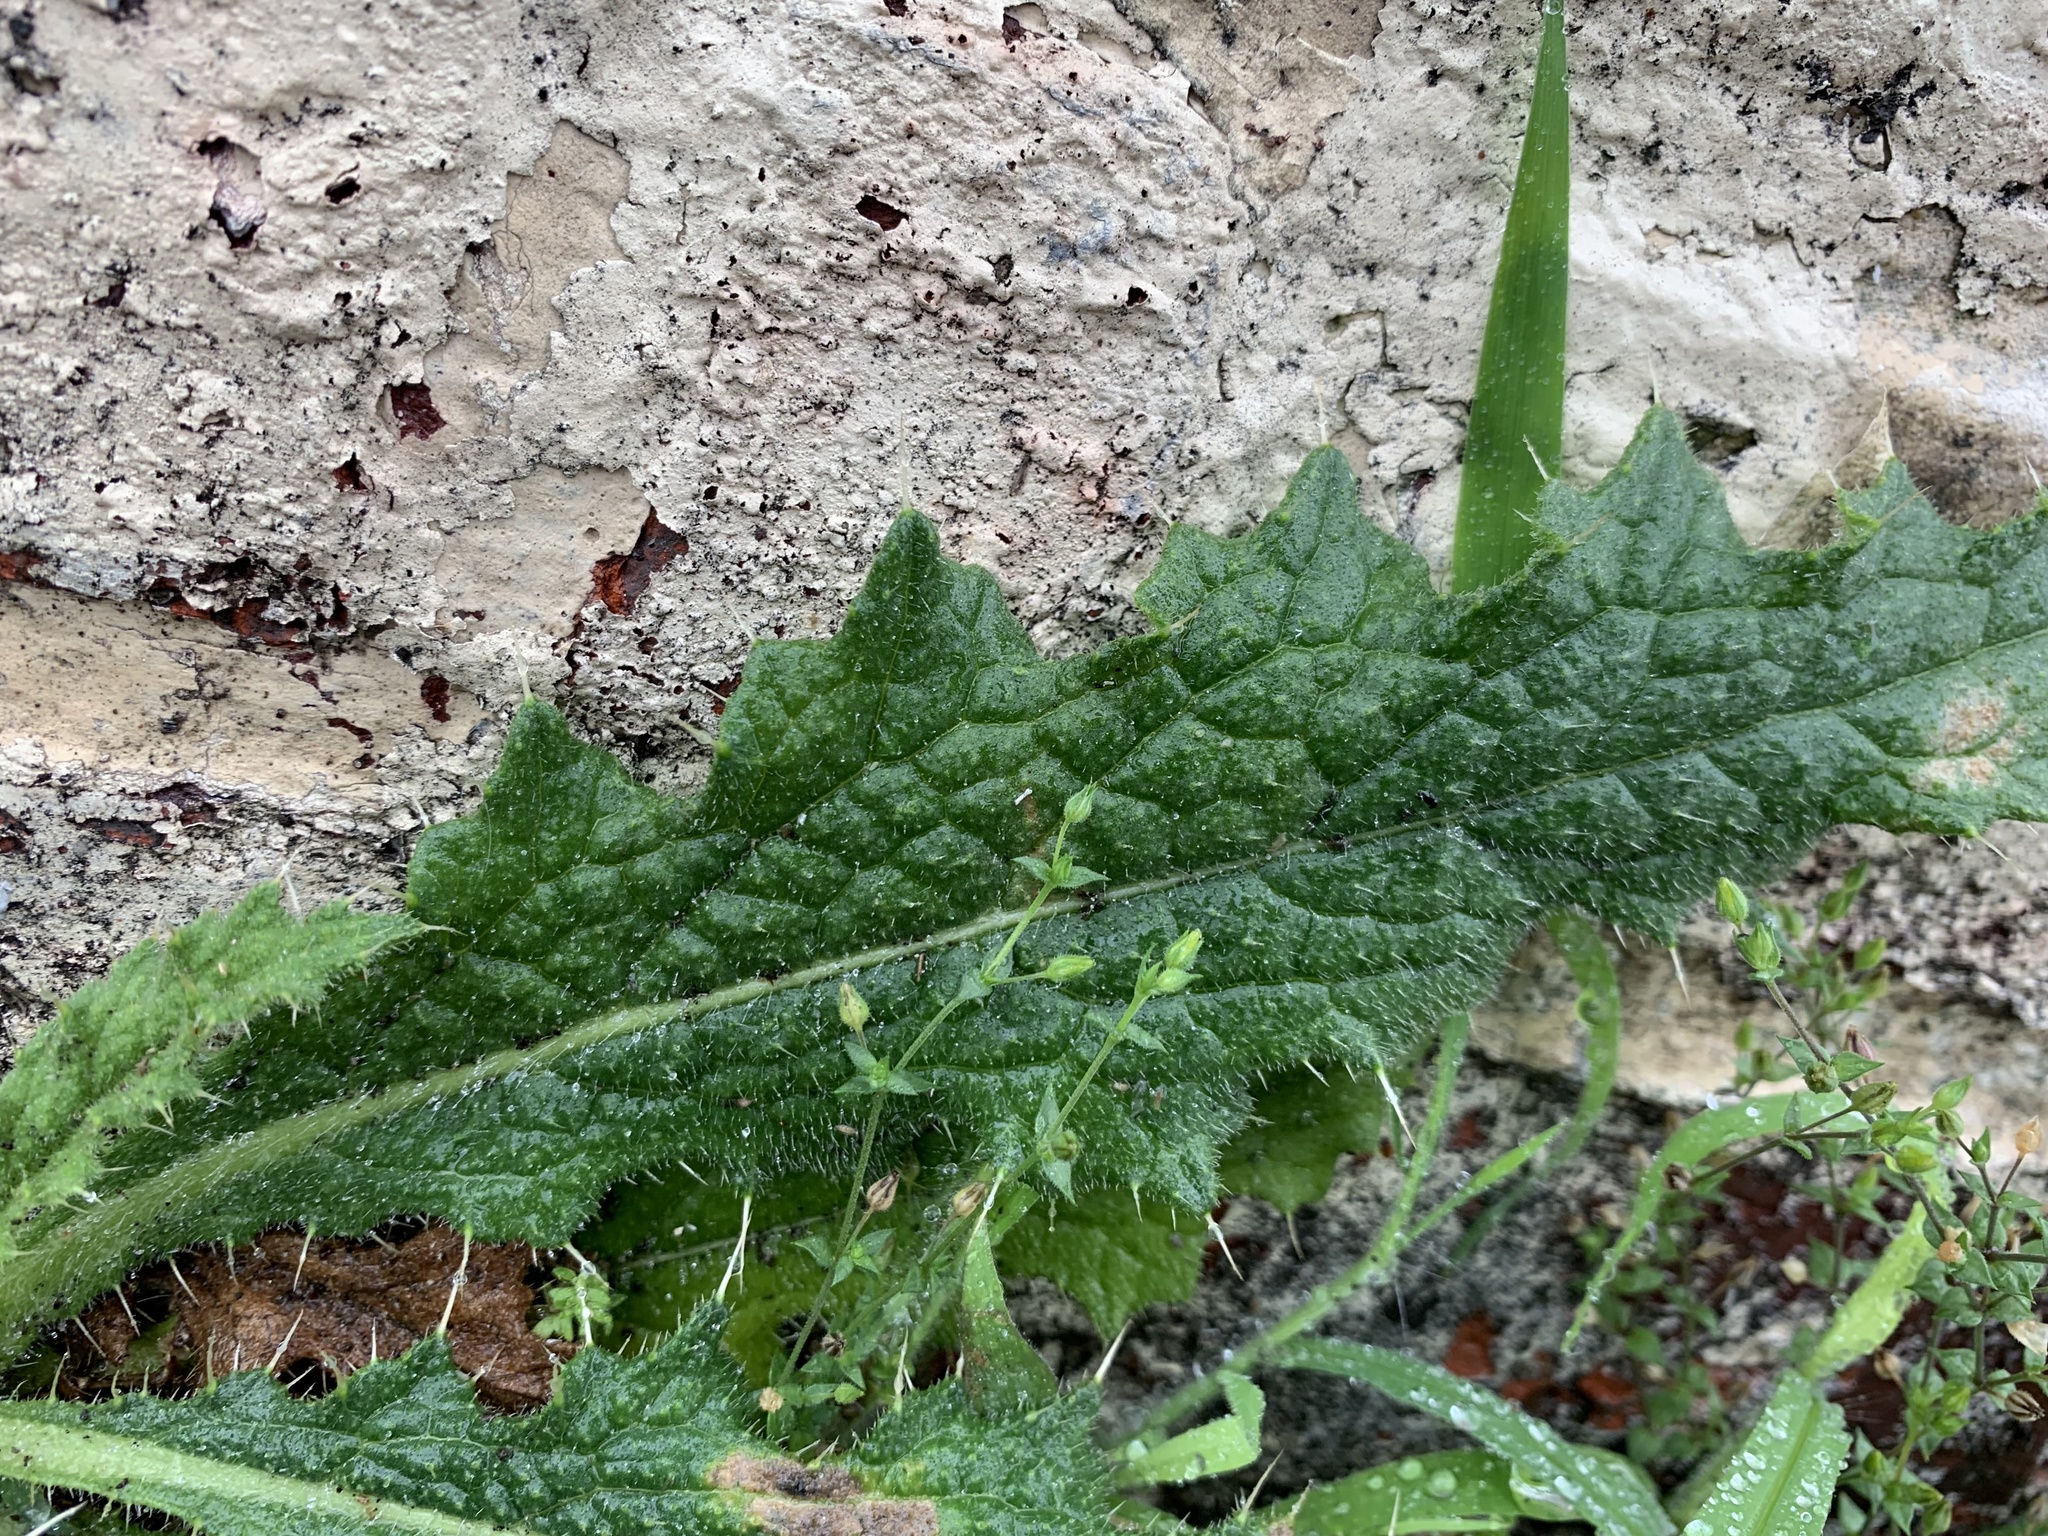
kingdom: Plantae
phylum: Tracheophyta
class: Magnoliopsida
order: Asterales
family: Asteraceae
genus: Cirsium
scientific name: Cirsium vulgare
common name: Bull thistle
